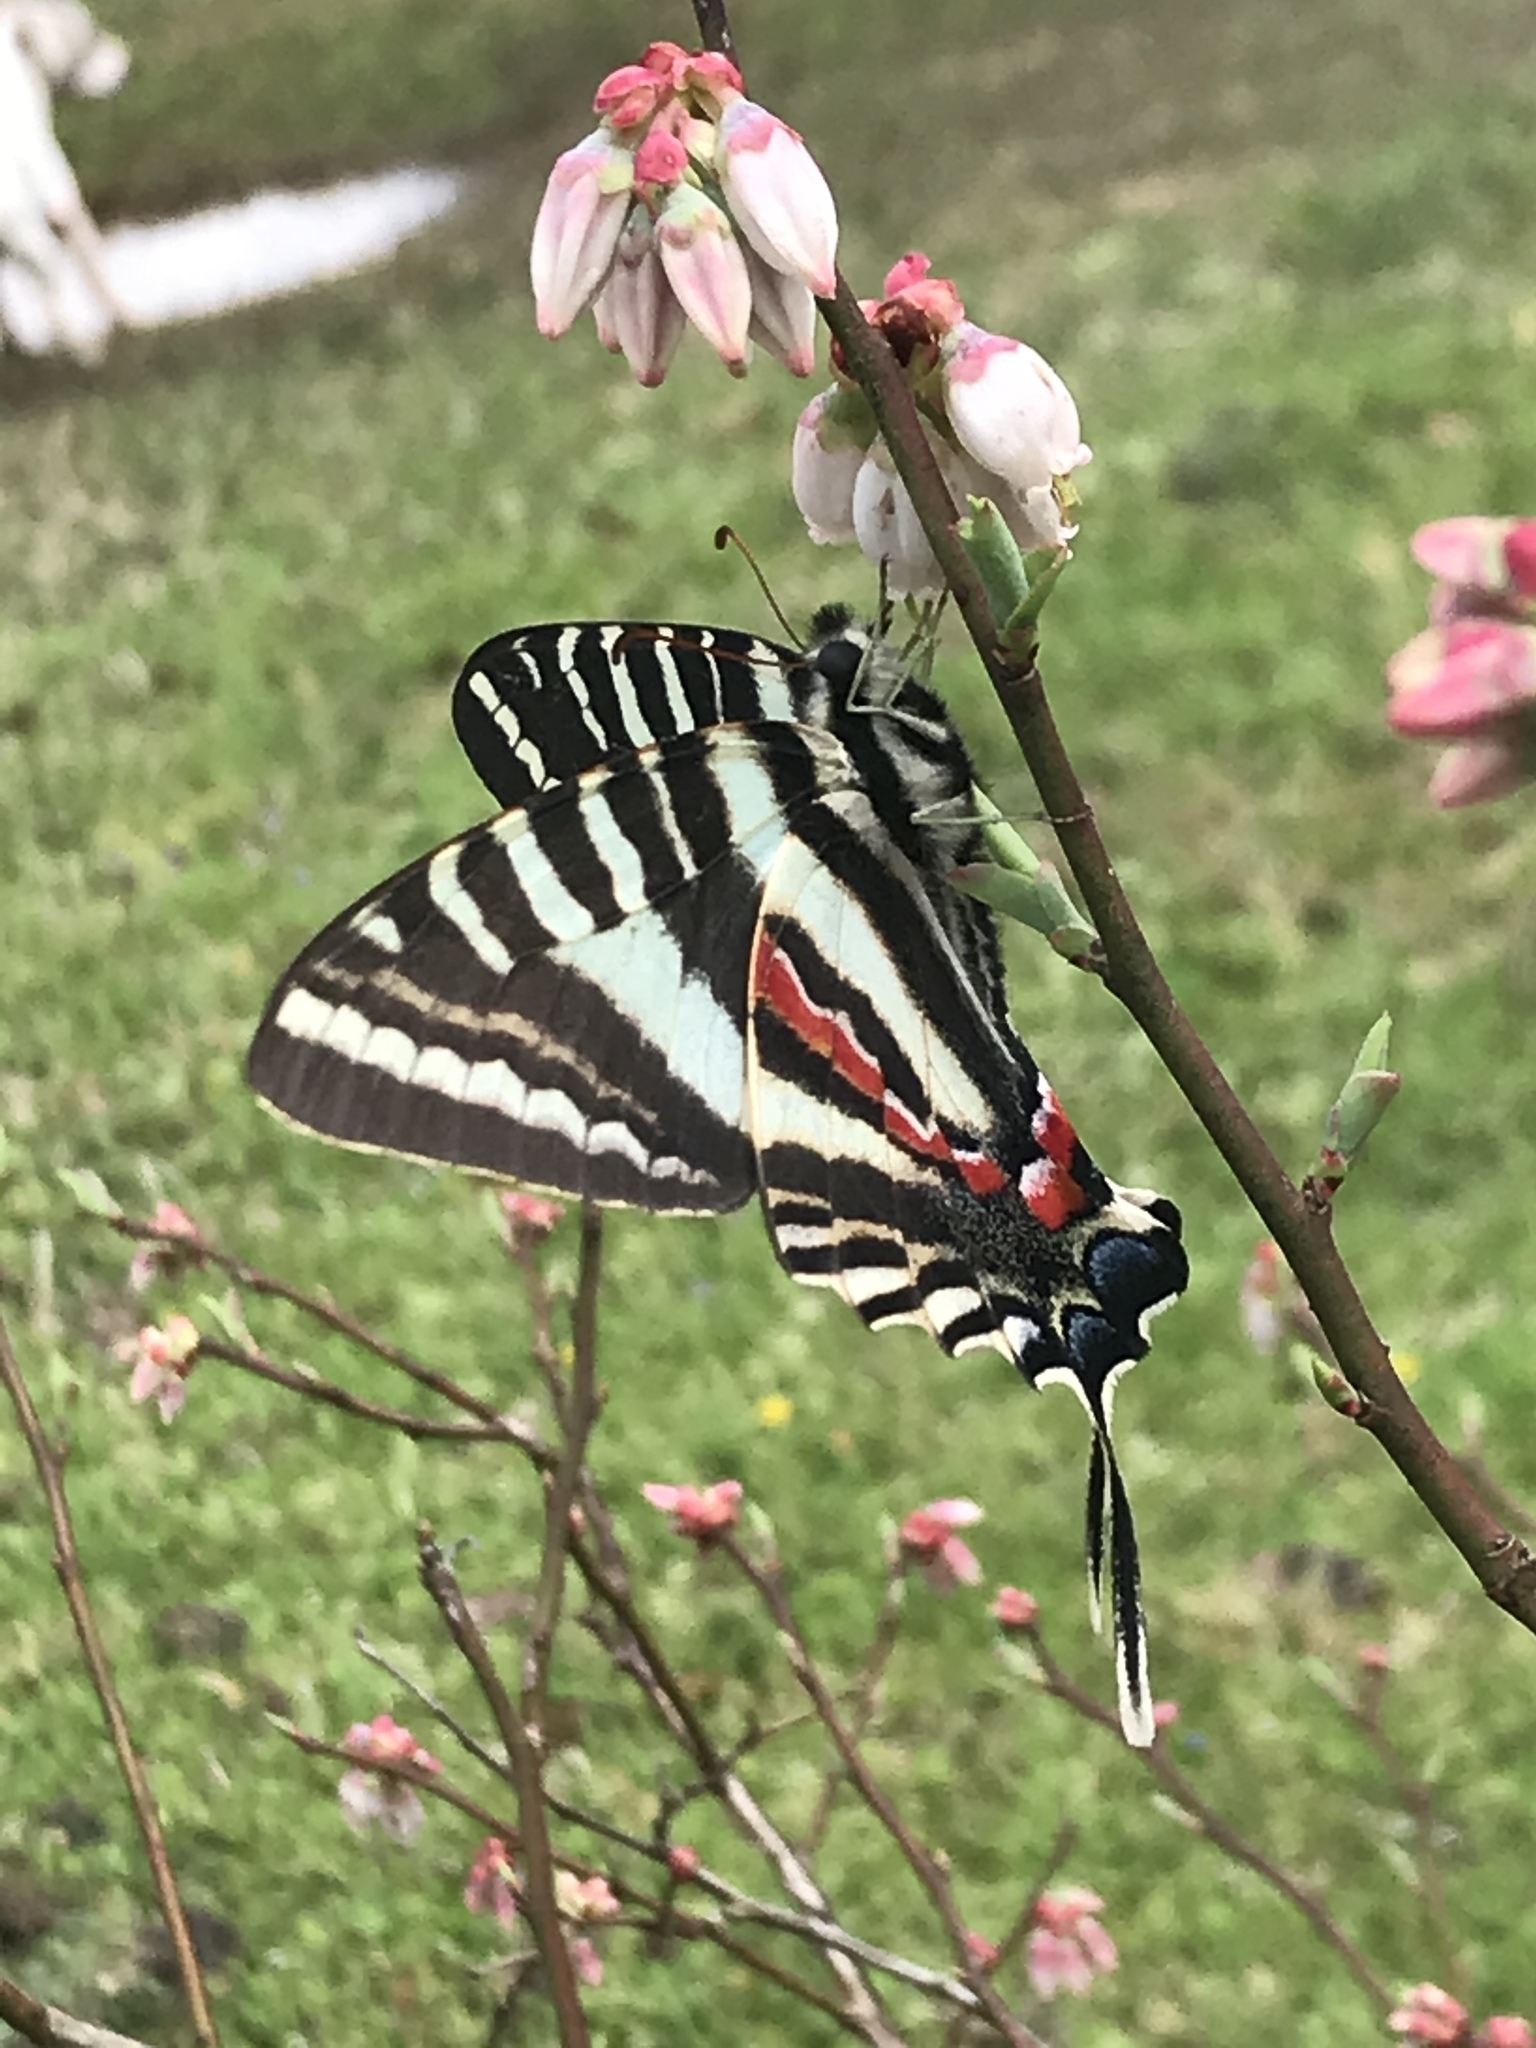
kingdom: Animalia
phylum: Arthropoda
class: Insecta
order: Lepidoptera
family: Papilionidae
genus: Protographium
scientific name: Protographium marcellus
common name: Zebra swallowtail
